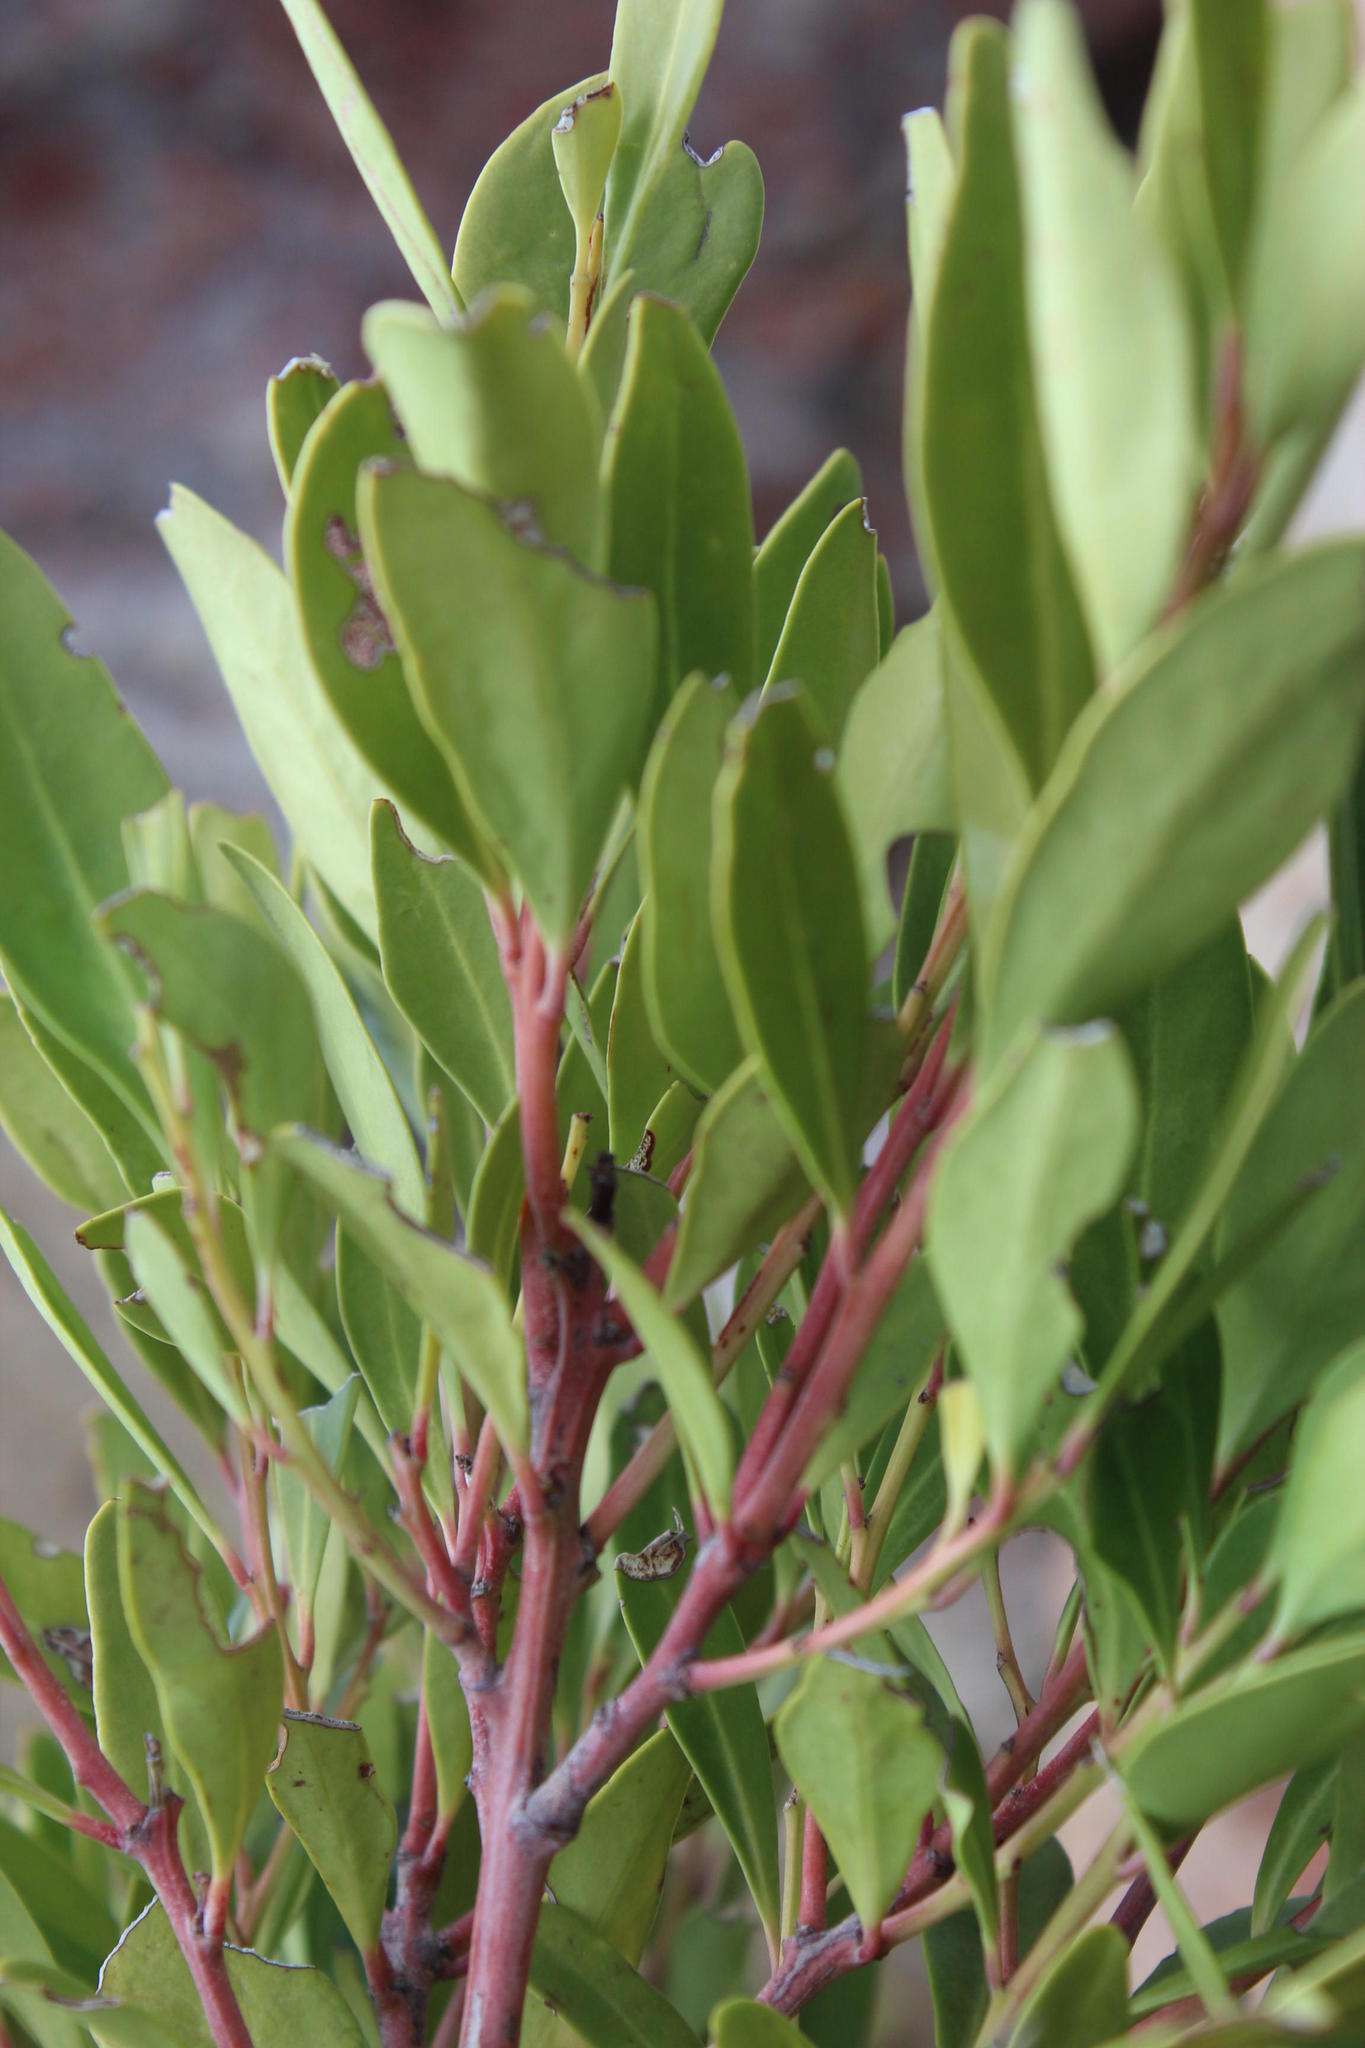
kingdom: Plantae
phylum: Tracheophyta
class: Magnoliopsida
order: Celastrales
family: Celastraceae
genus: Gymnosporia
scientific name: Gymnosporia laurina
